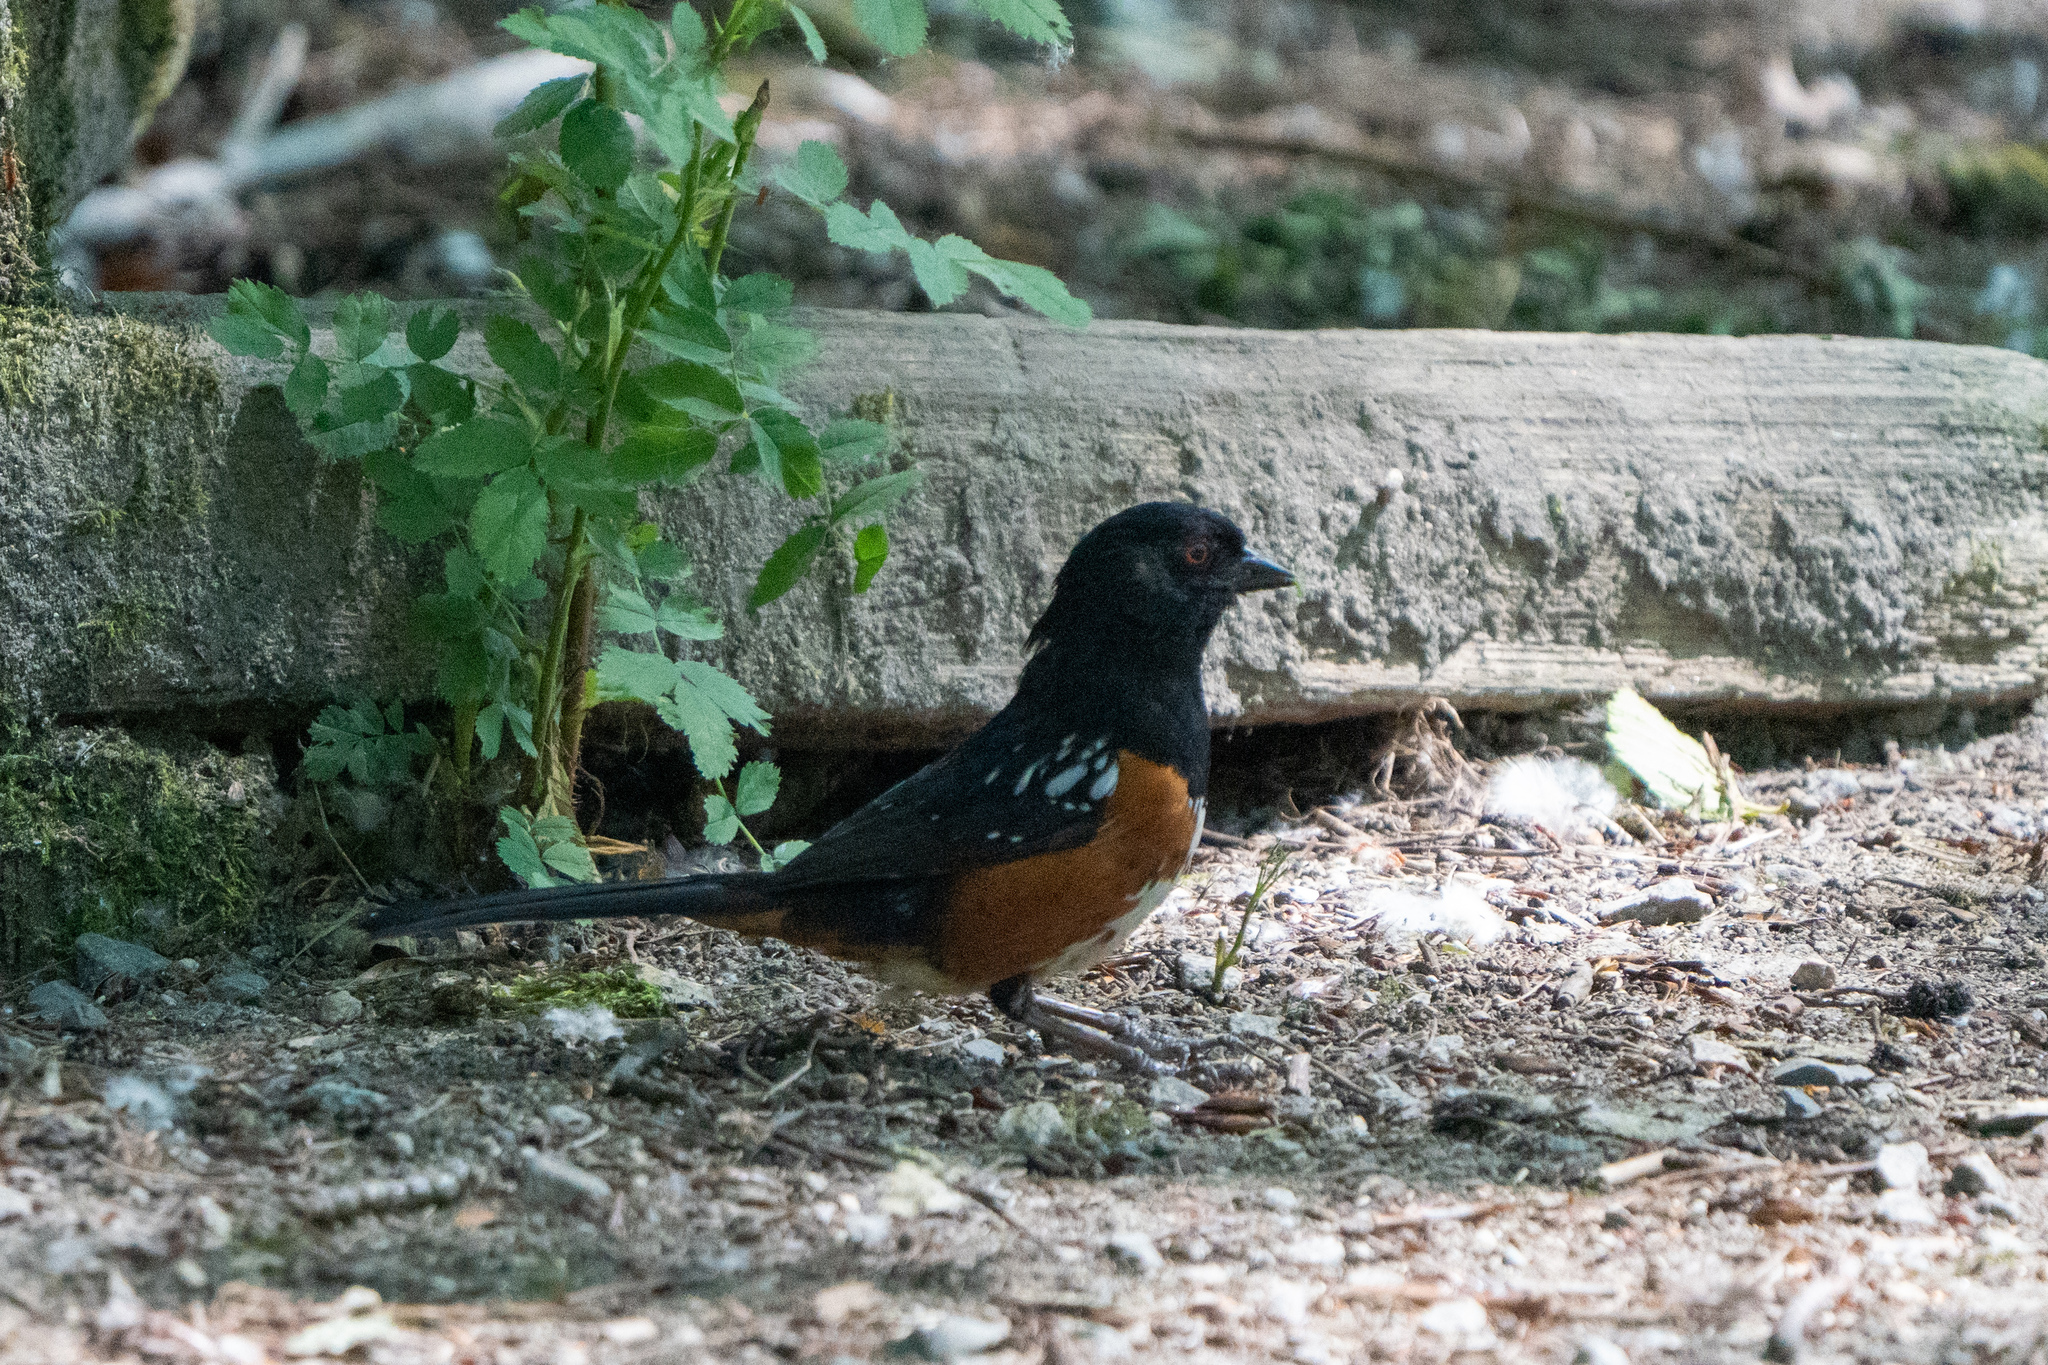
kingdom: Animalia
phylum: Chordata
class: Aves
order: Passeriformes
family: Passerellidae
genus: Pipilo
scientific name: Pipilo maculatus
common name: Spotted towhee
